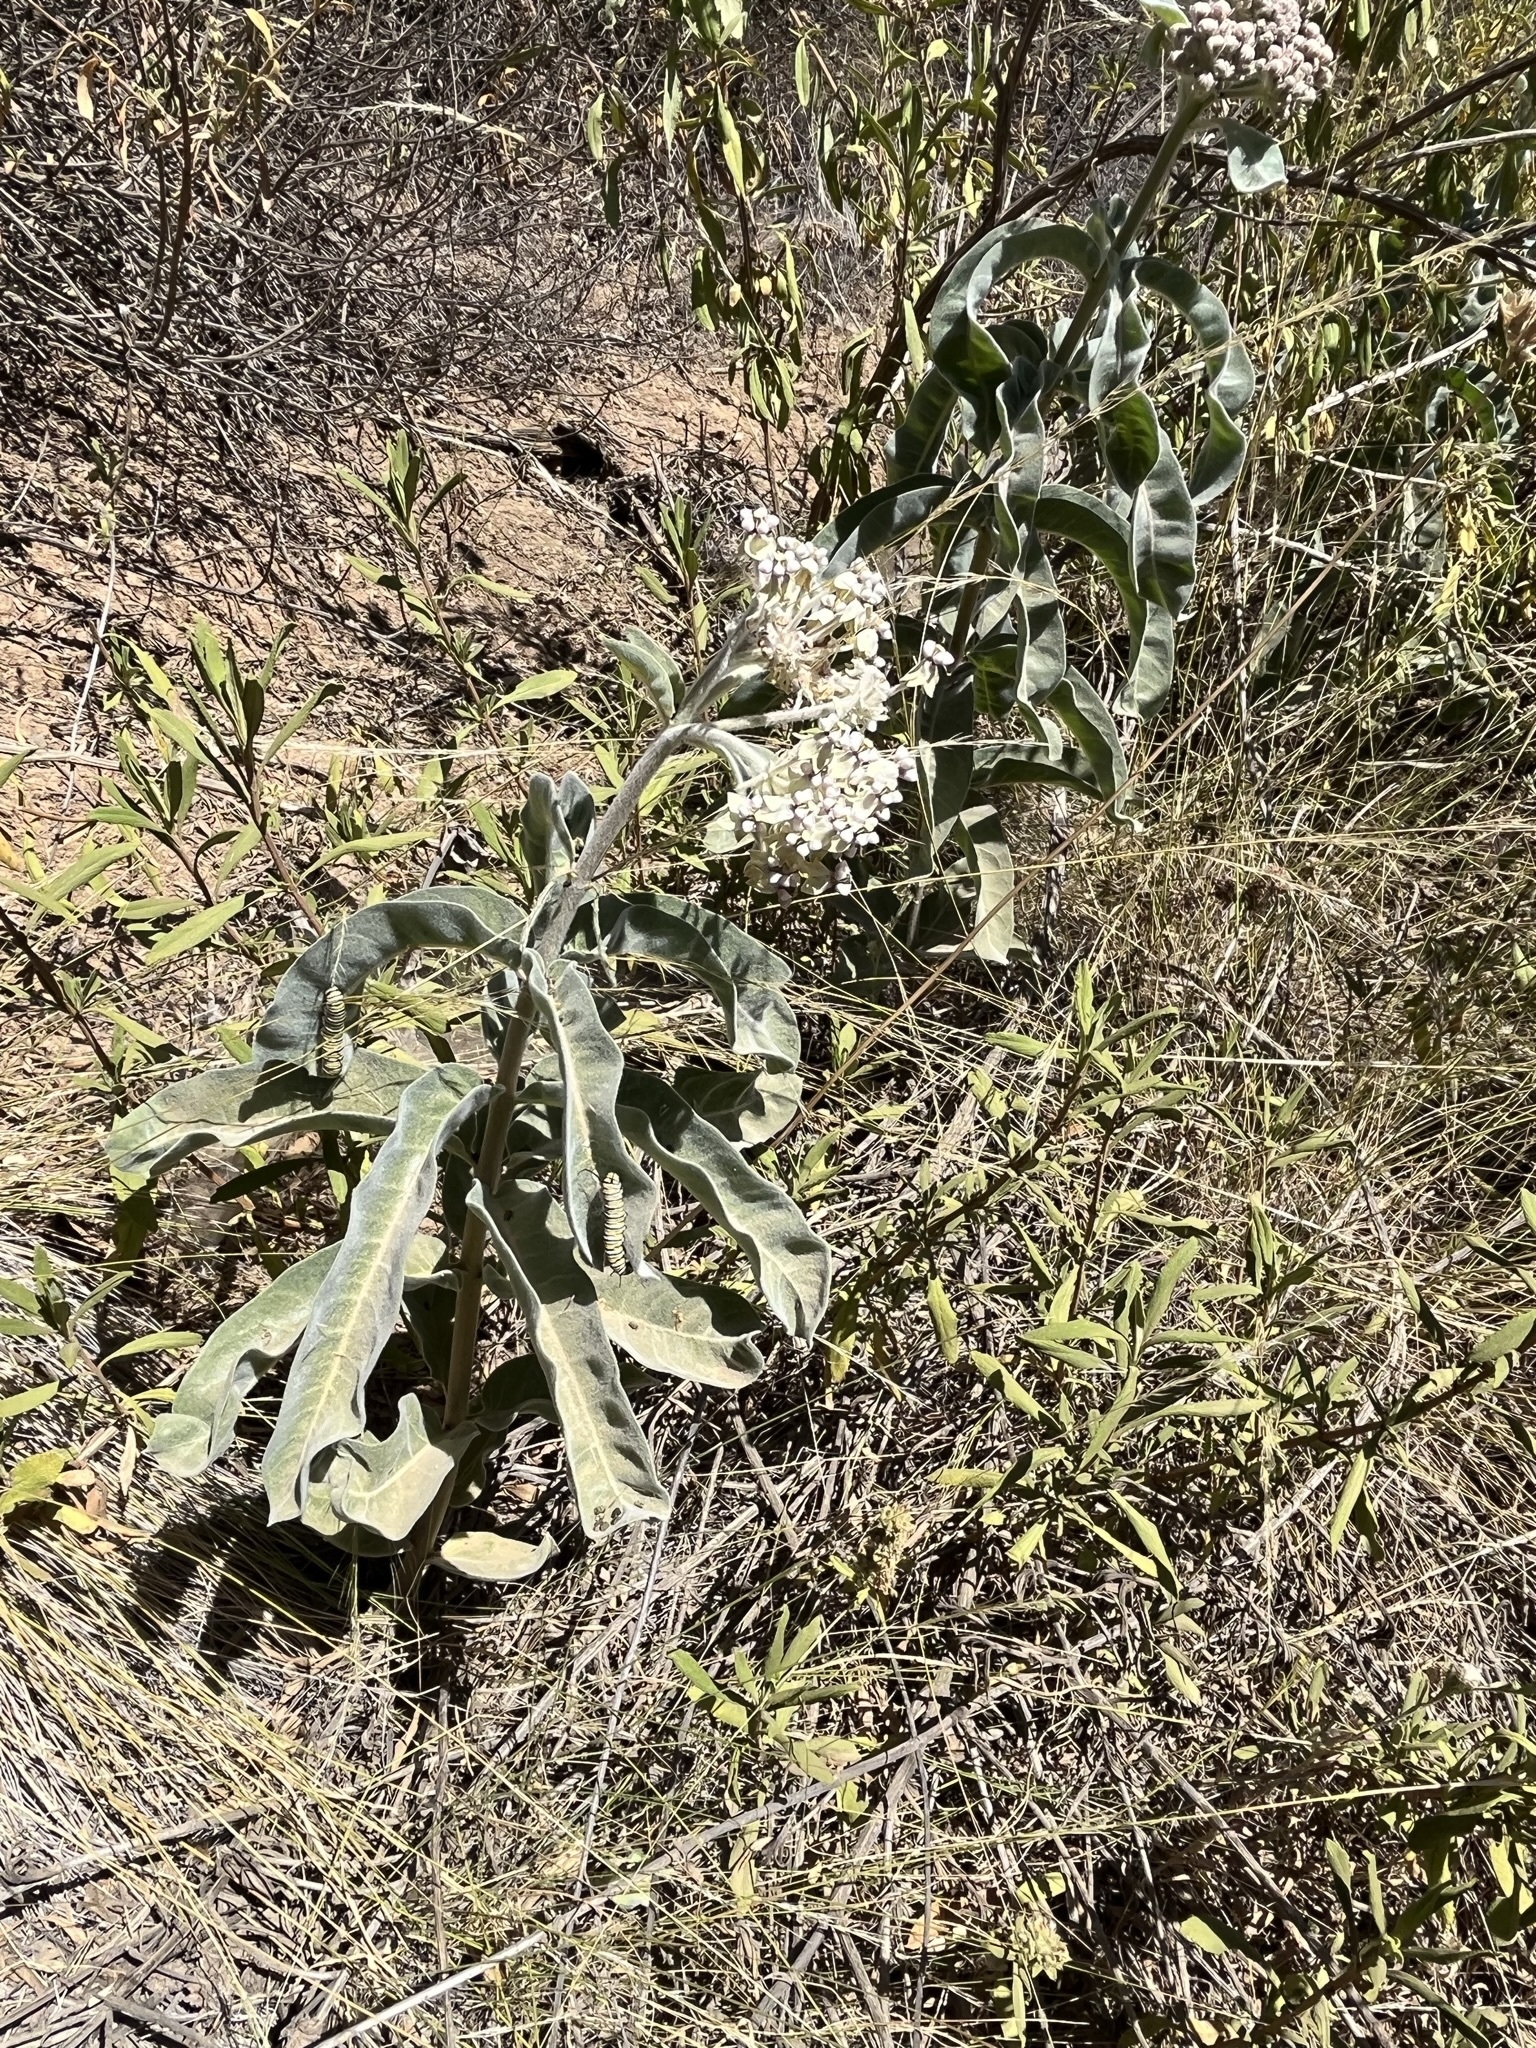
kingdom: Plantae
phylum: Tracheophyta
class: Magnoliopsida
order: Gentianales
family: Apocynaceae
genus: Asclepias
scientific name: Asclepias eriocarpa
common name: Indian milkweed
